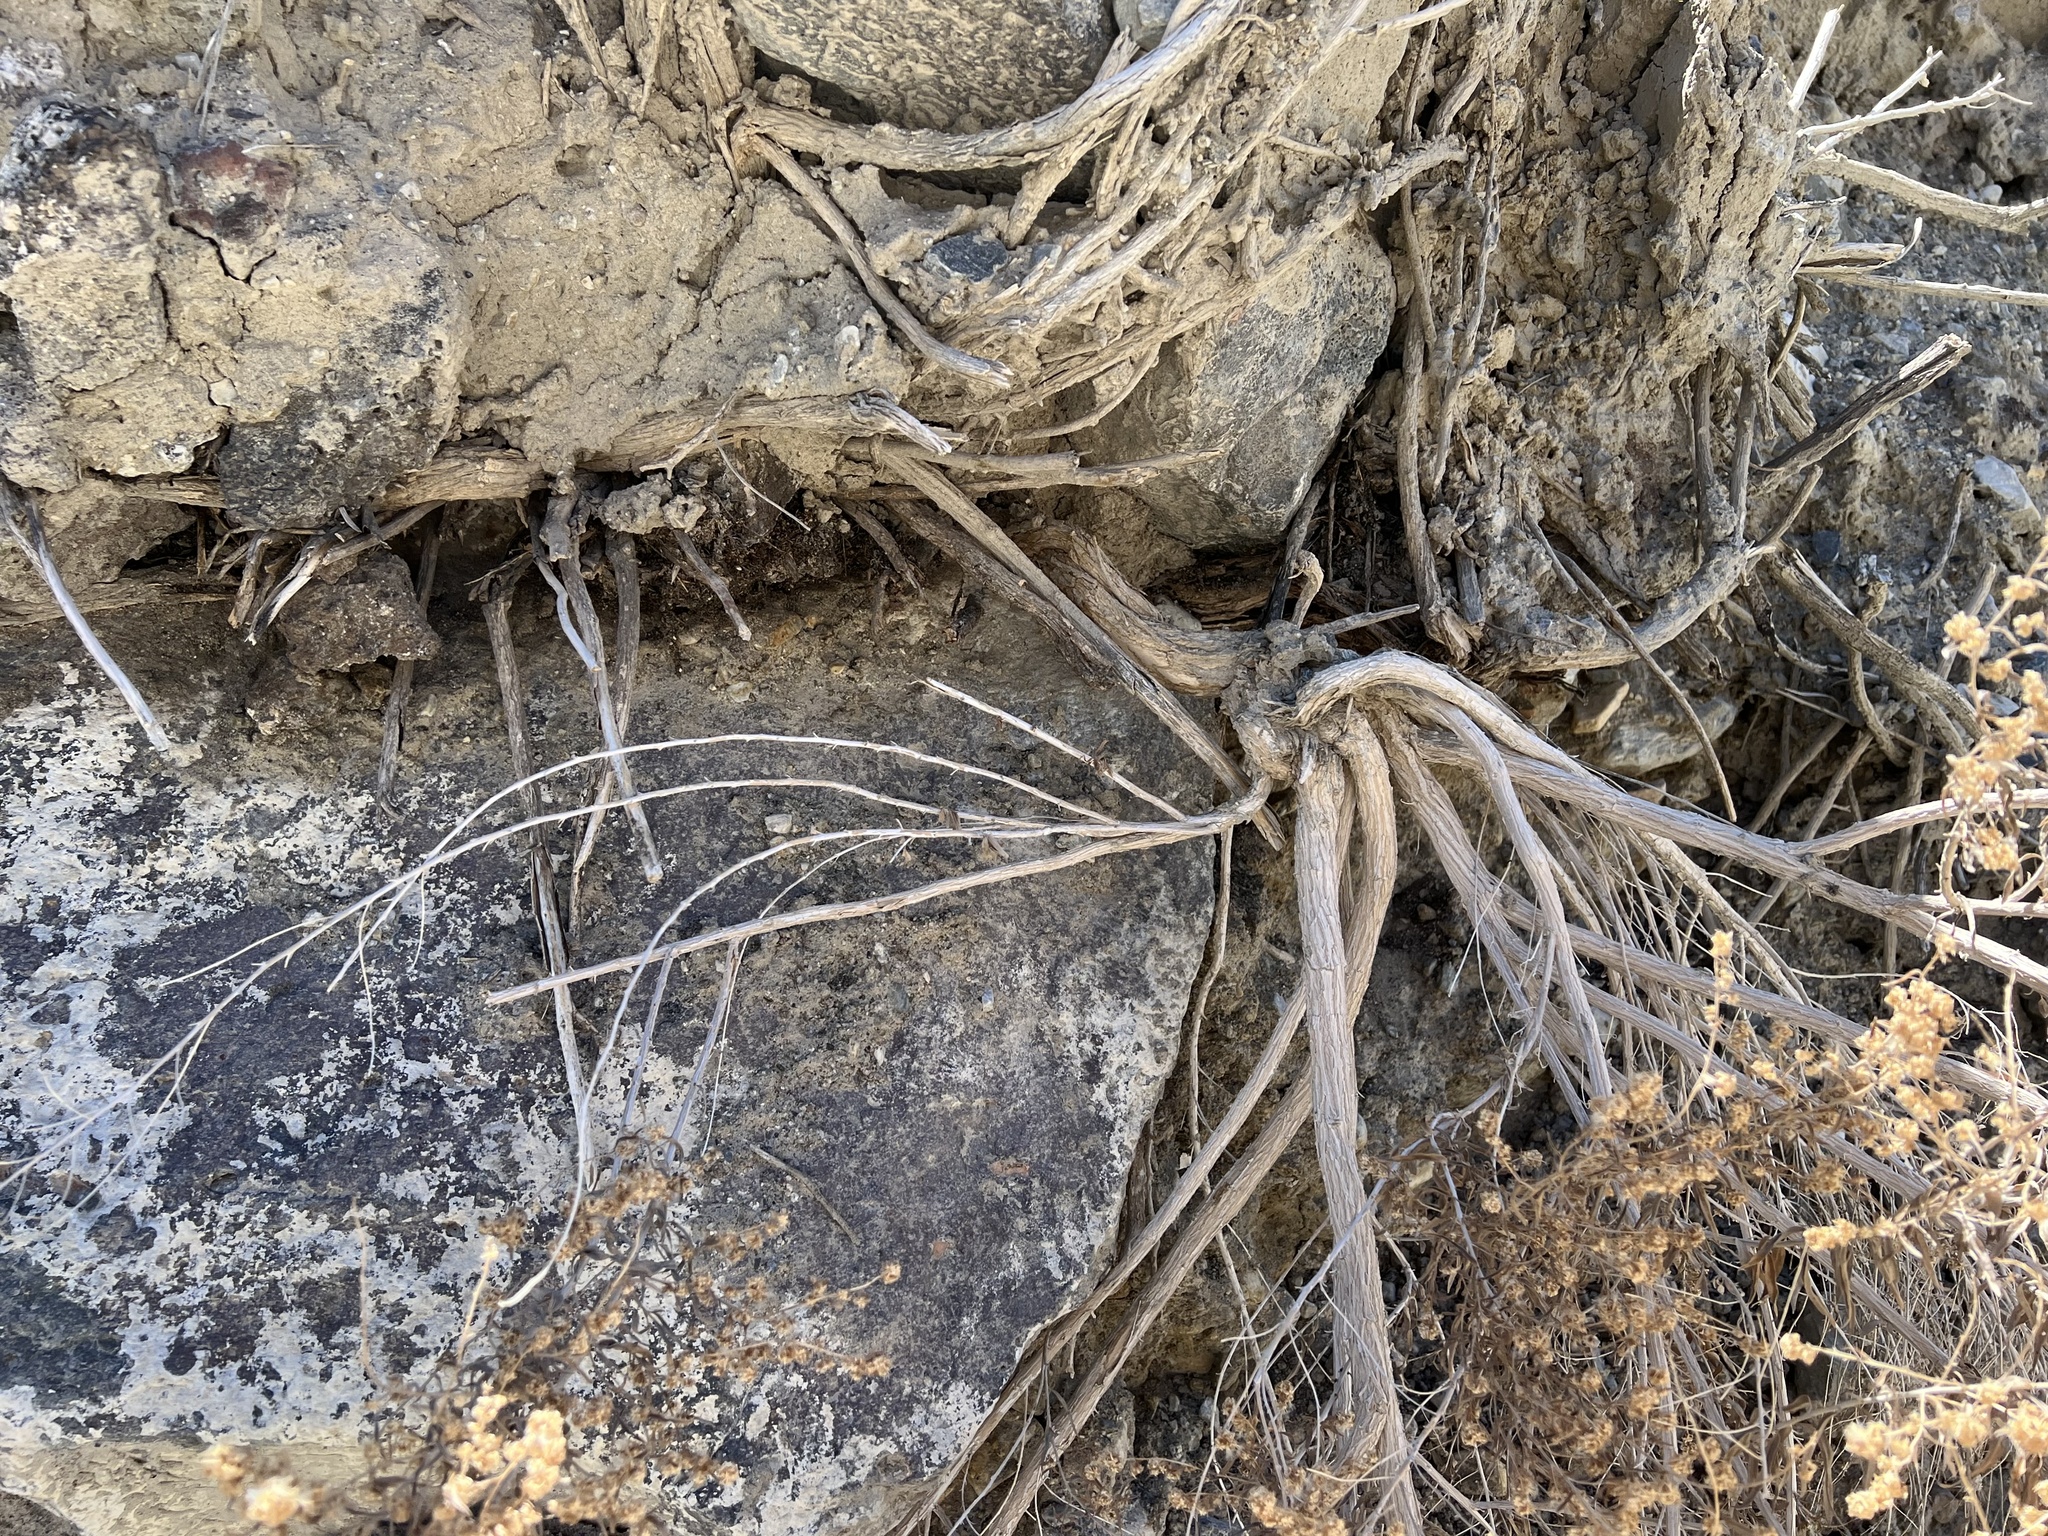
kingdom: Plantae
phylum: Tracheophyta
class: Magnoliopsida
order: Asterales
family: Asteraceae
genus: Brickellia
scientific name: Brickellia longifolia
